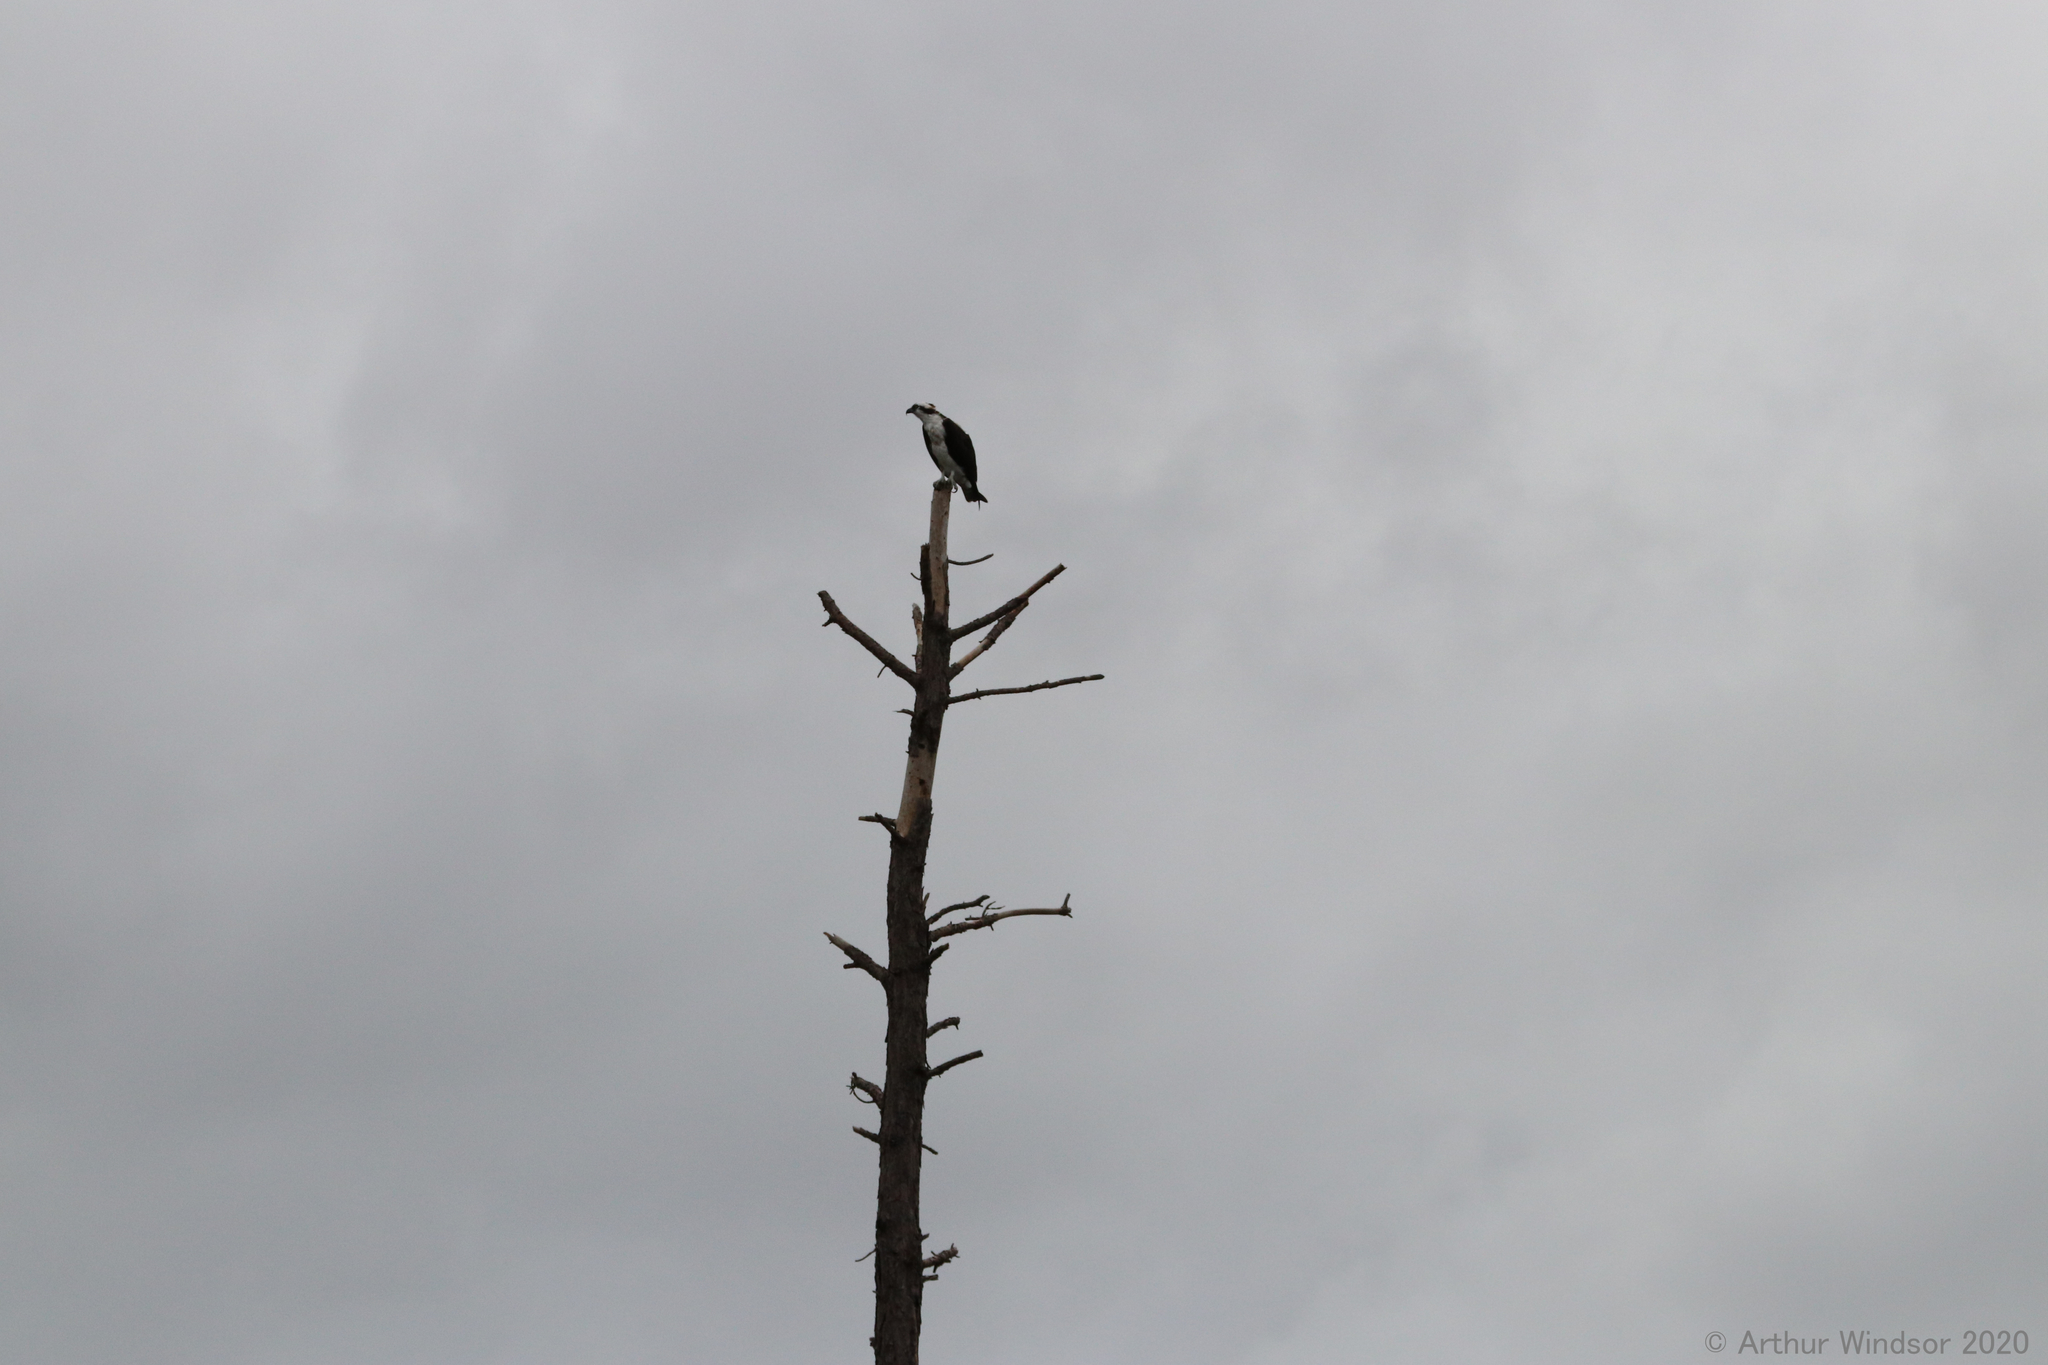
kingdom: Animalia
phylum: Chordata
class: Aves
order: Accipitriformes
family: Pandionidae
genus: Pandion
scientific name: Pandion haliaetus
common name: Osprey
